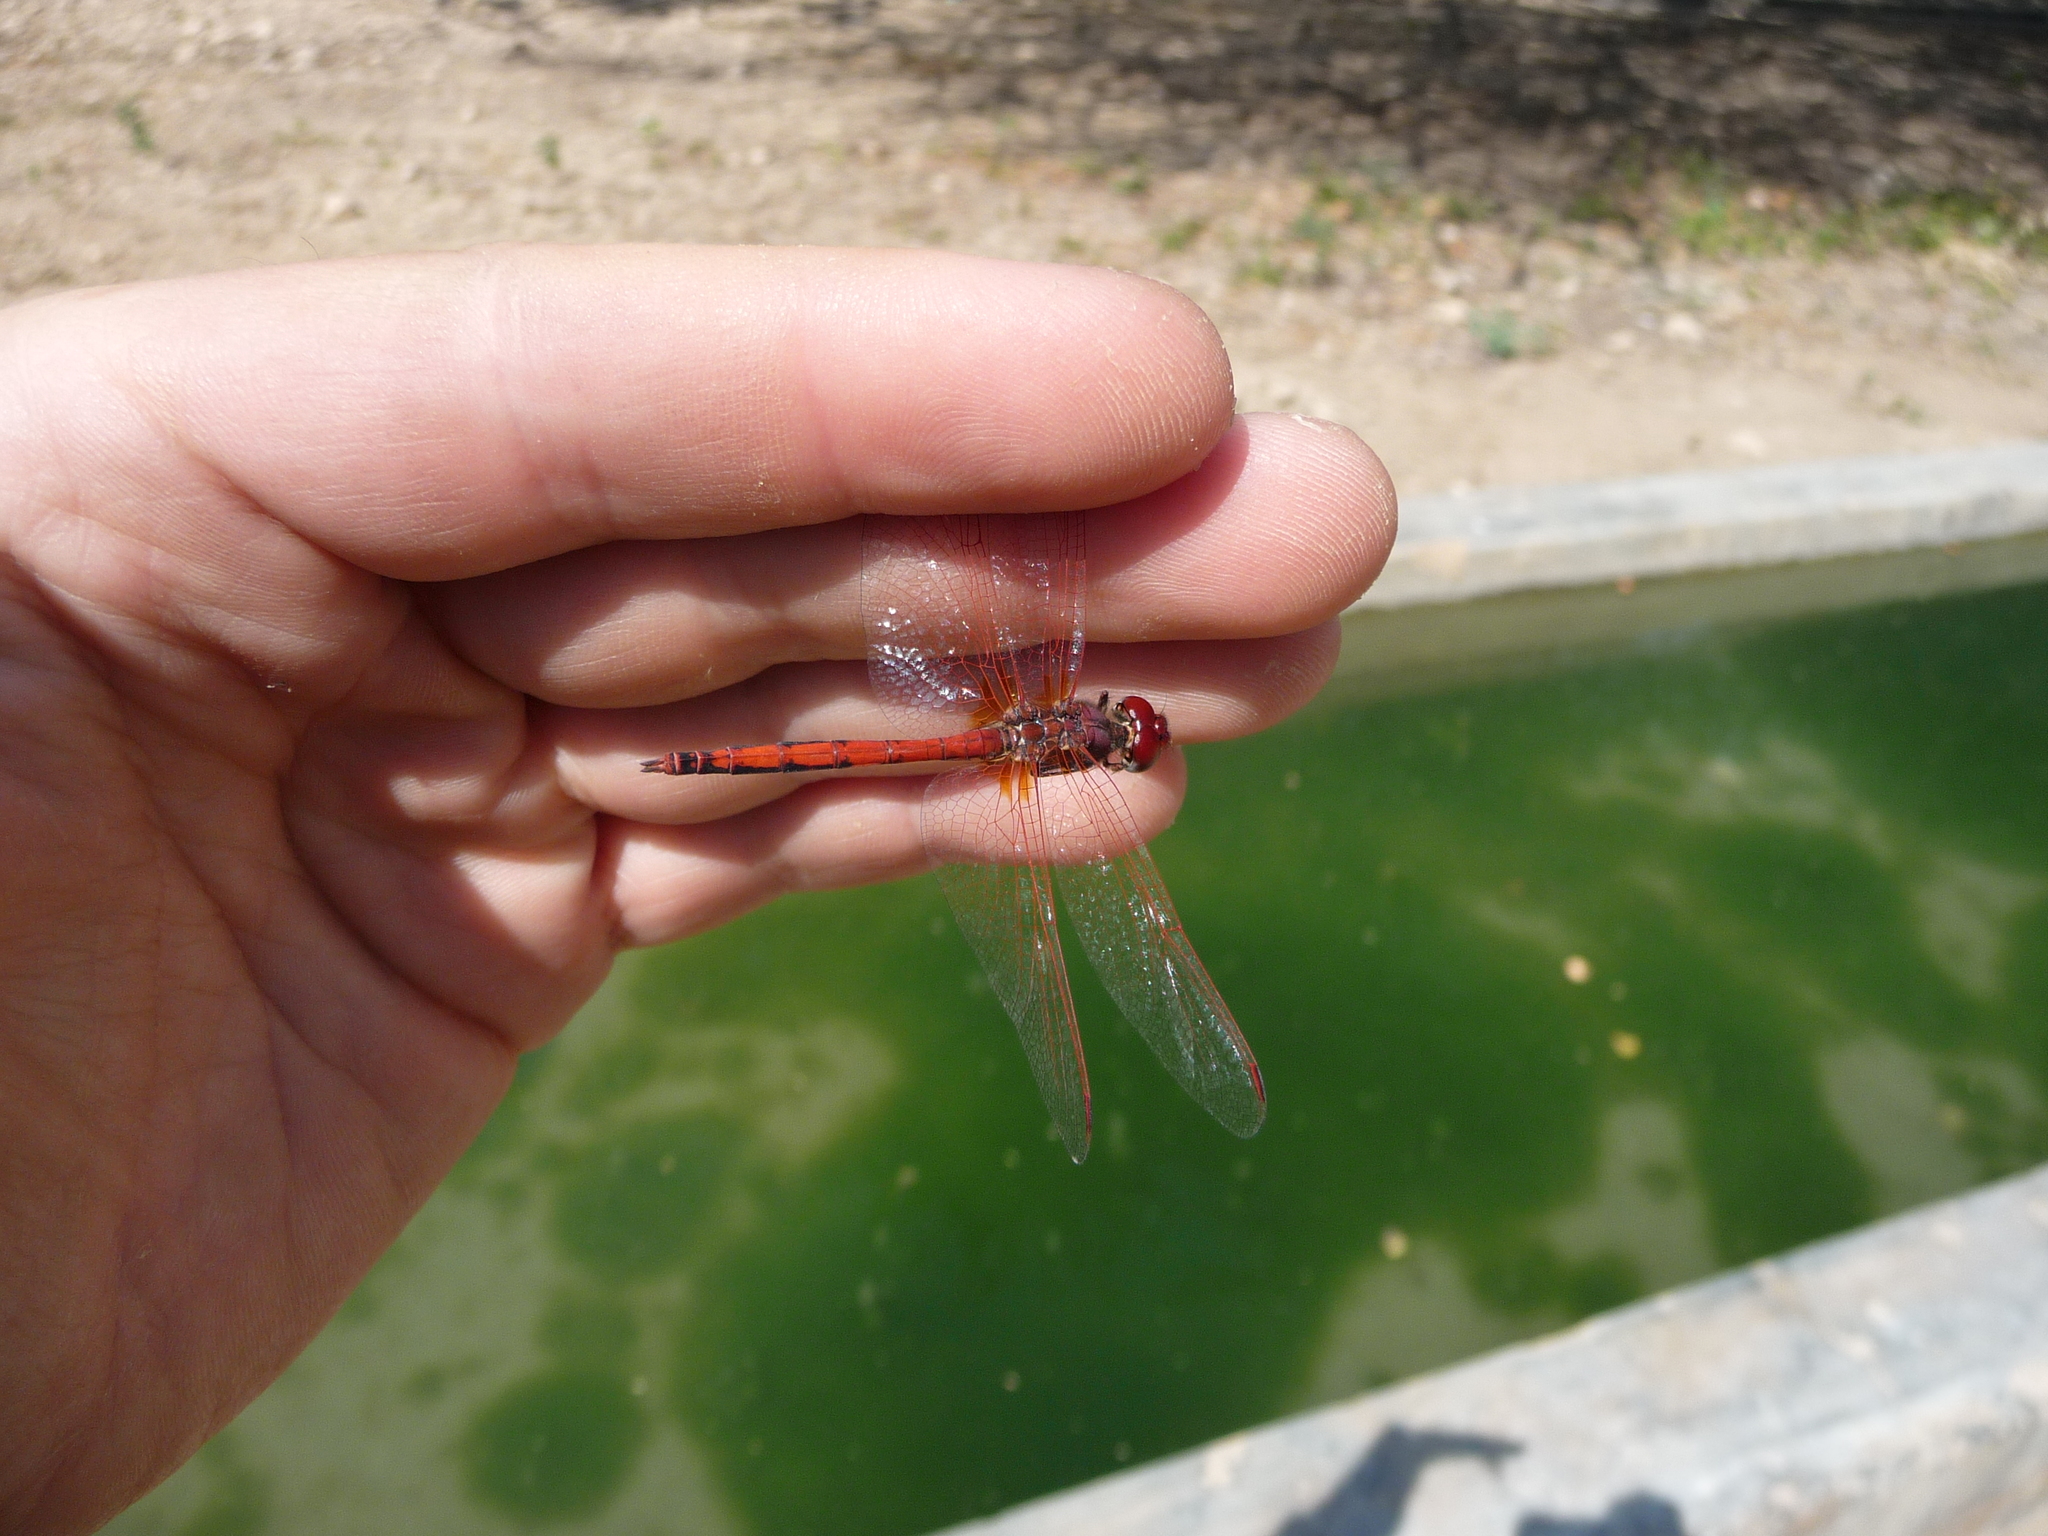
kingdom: Animalia
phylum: Arthropoda
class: Insecta
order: Odonata
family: Libellulidae
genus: Trithemis
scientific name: Trithemis arteriosa
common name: Red-veined dropwing
